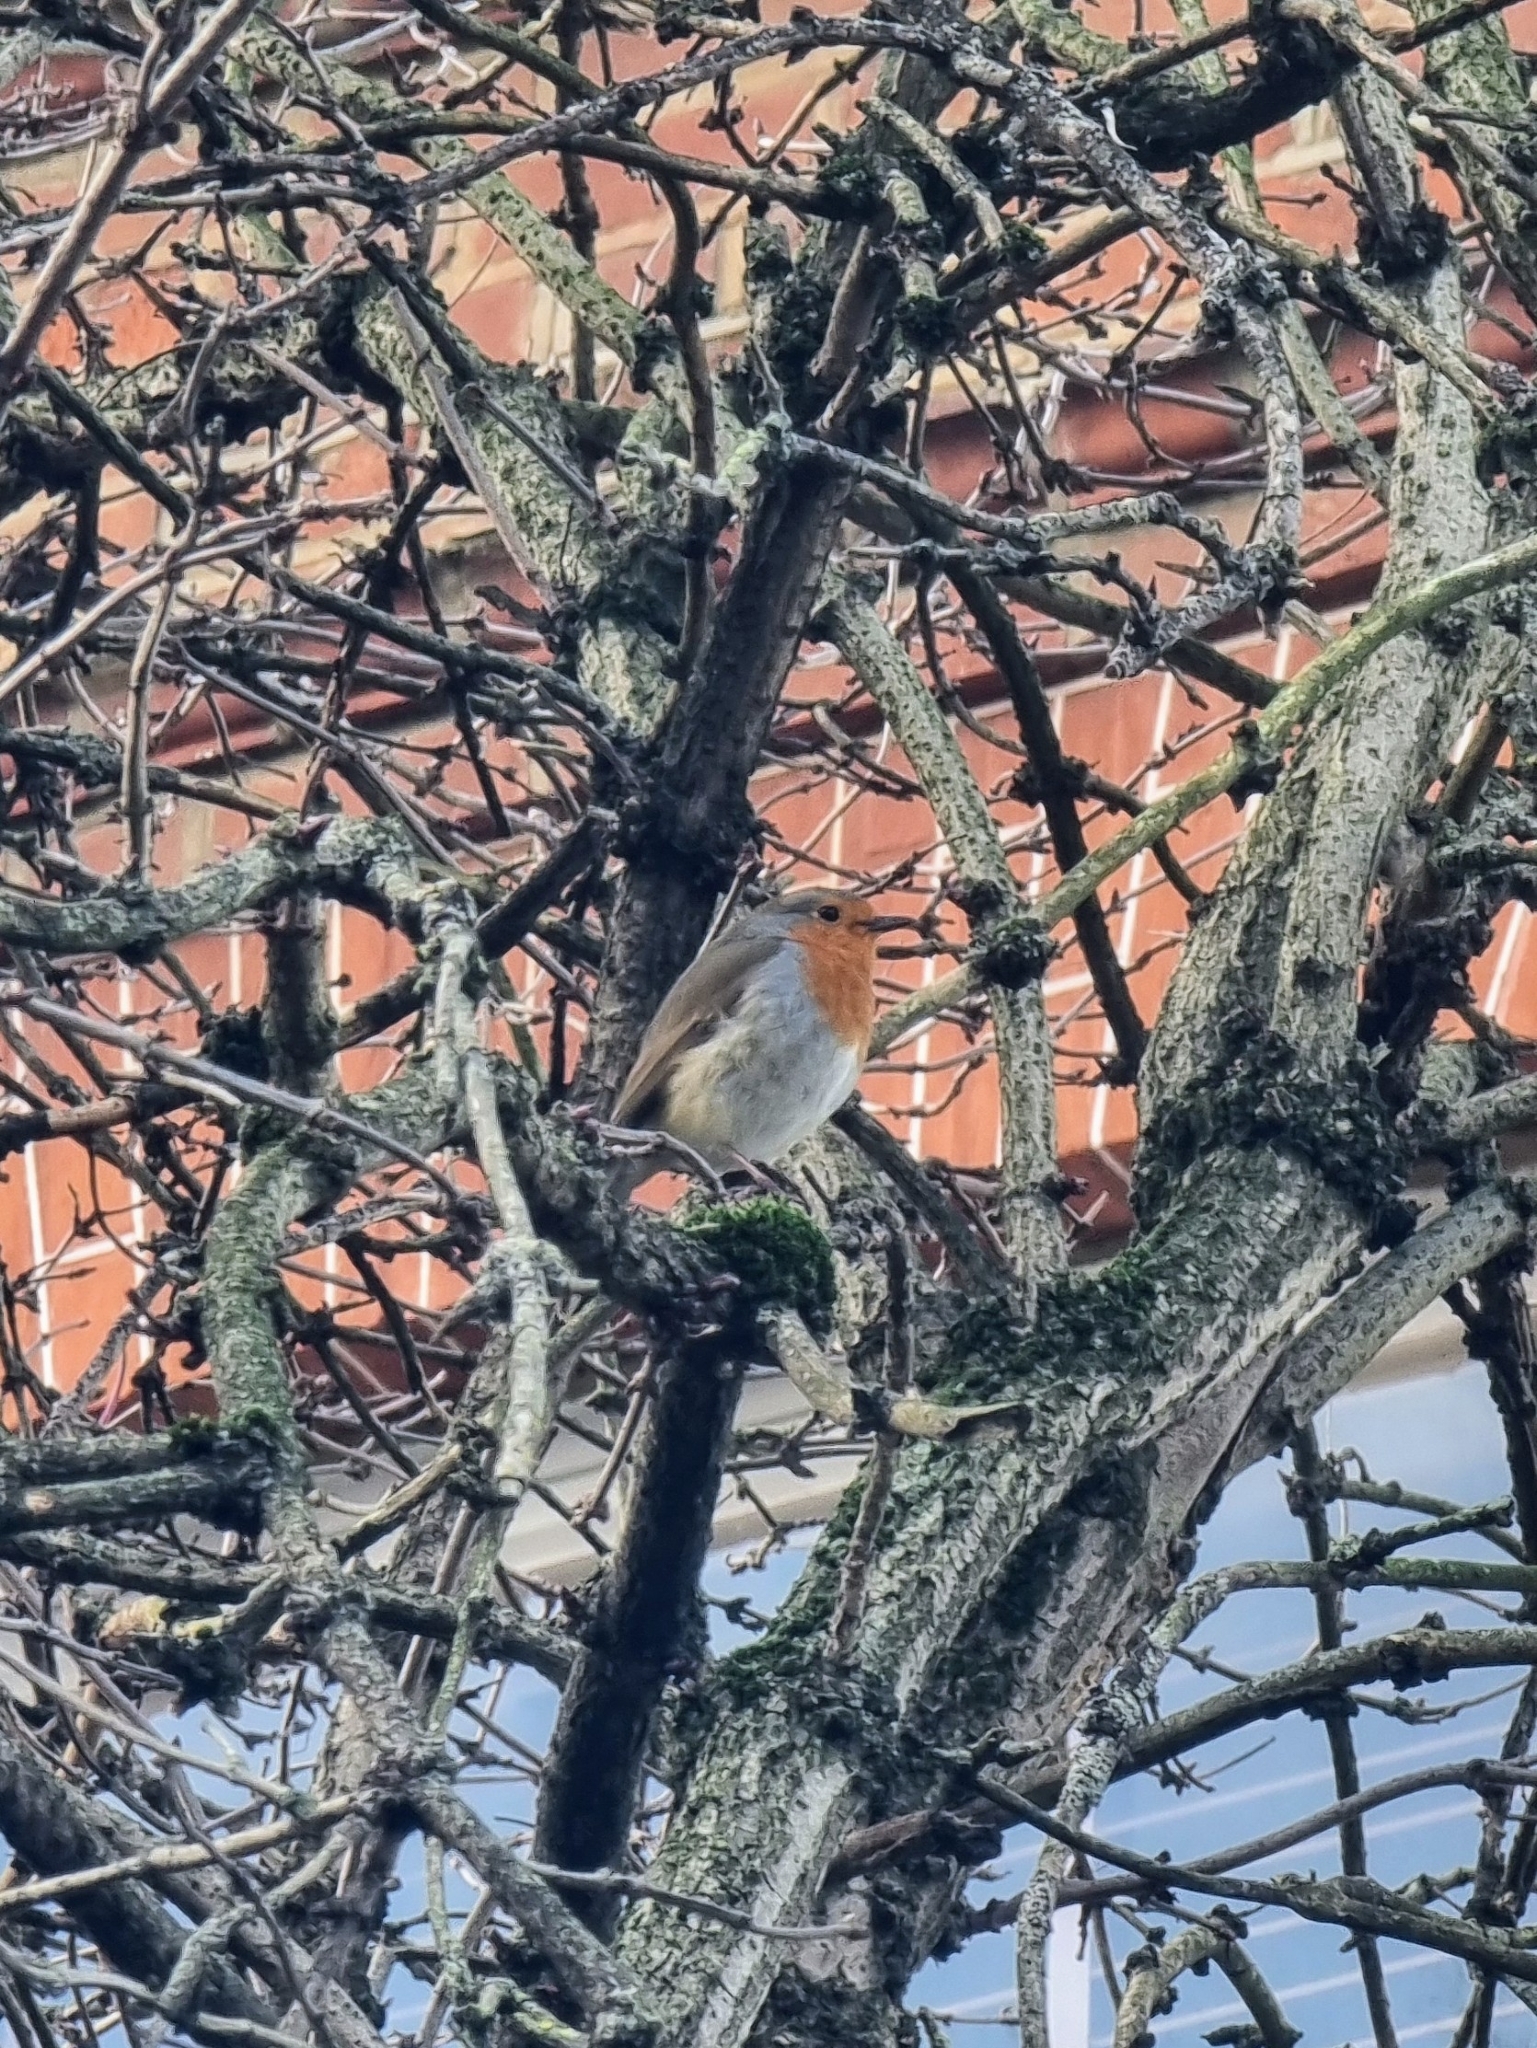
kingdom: Animalia
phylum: Chordata
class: Aves
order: Passeriformes
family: Muscicapidae
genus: Erithacus
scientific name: Erithacus rubecula
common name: European robin
